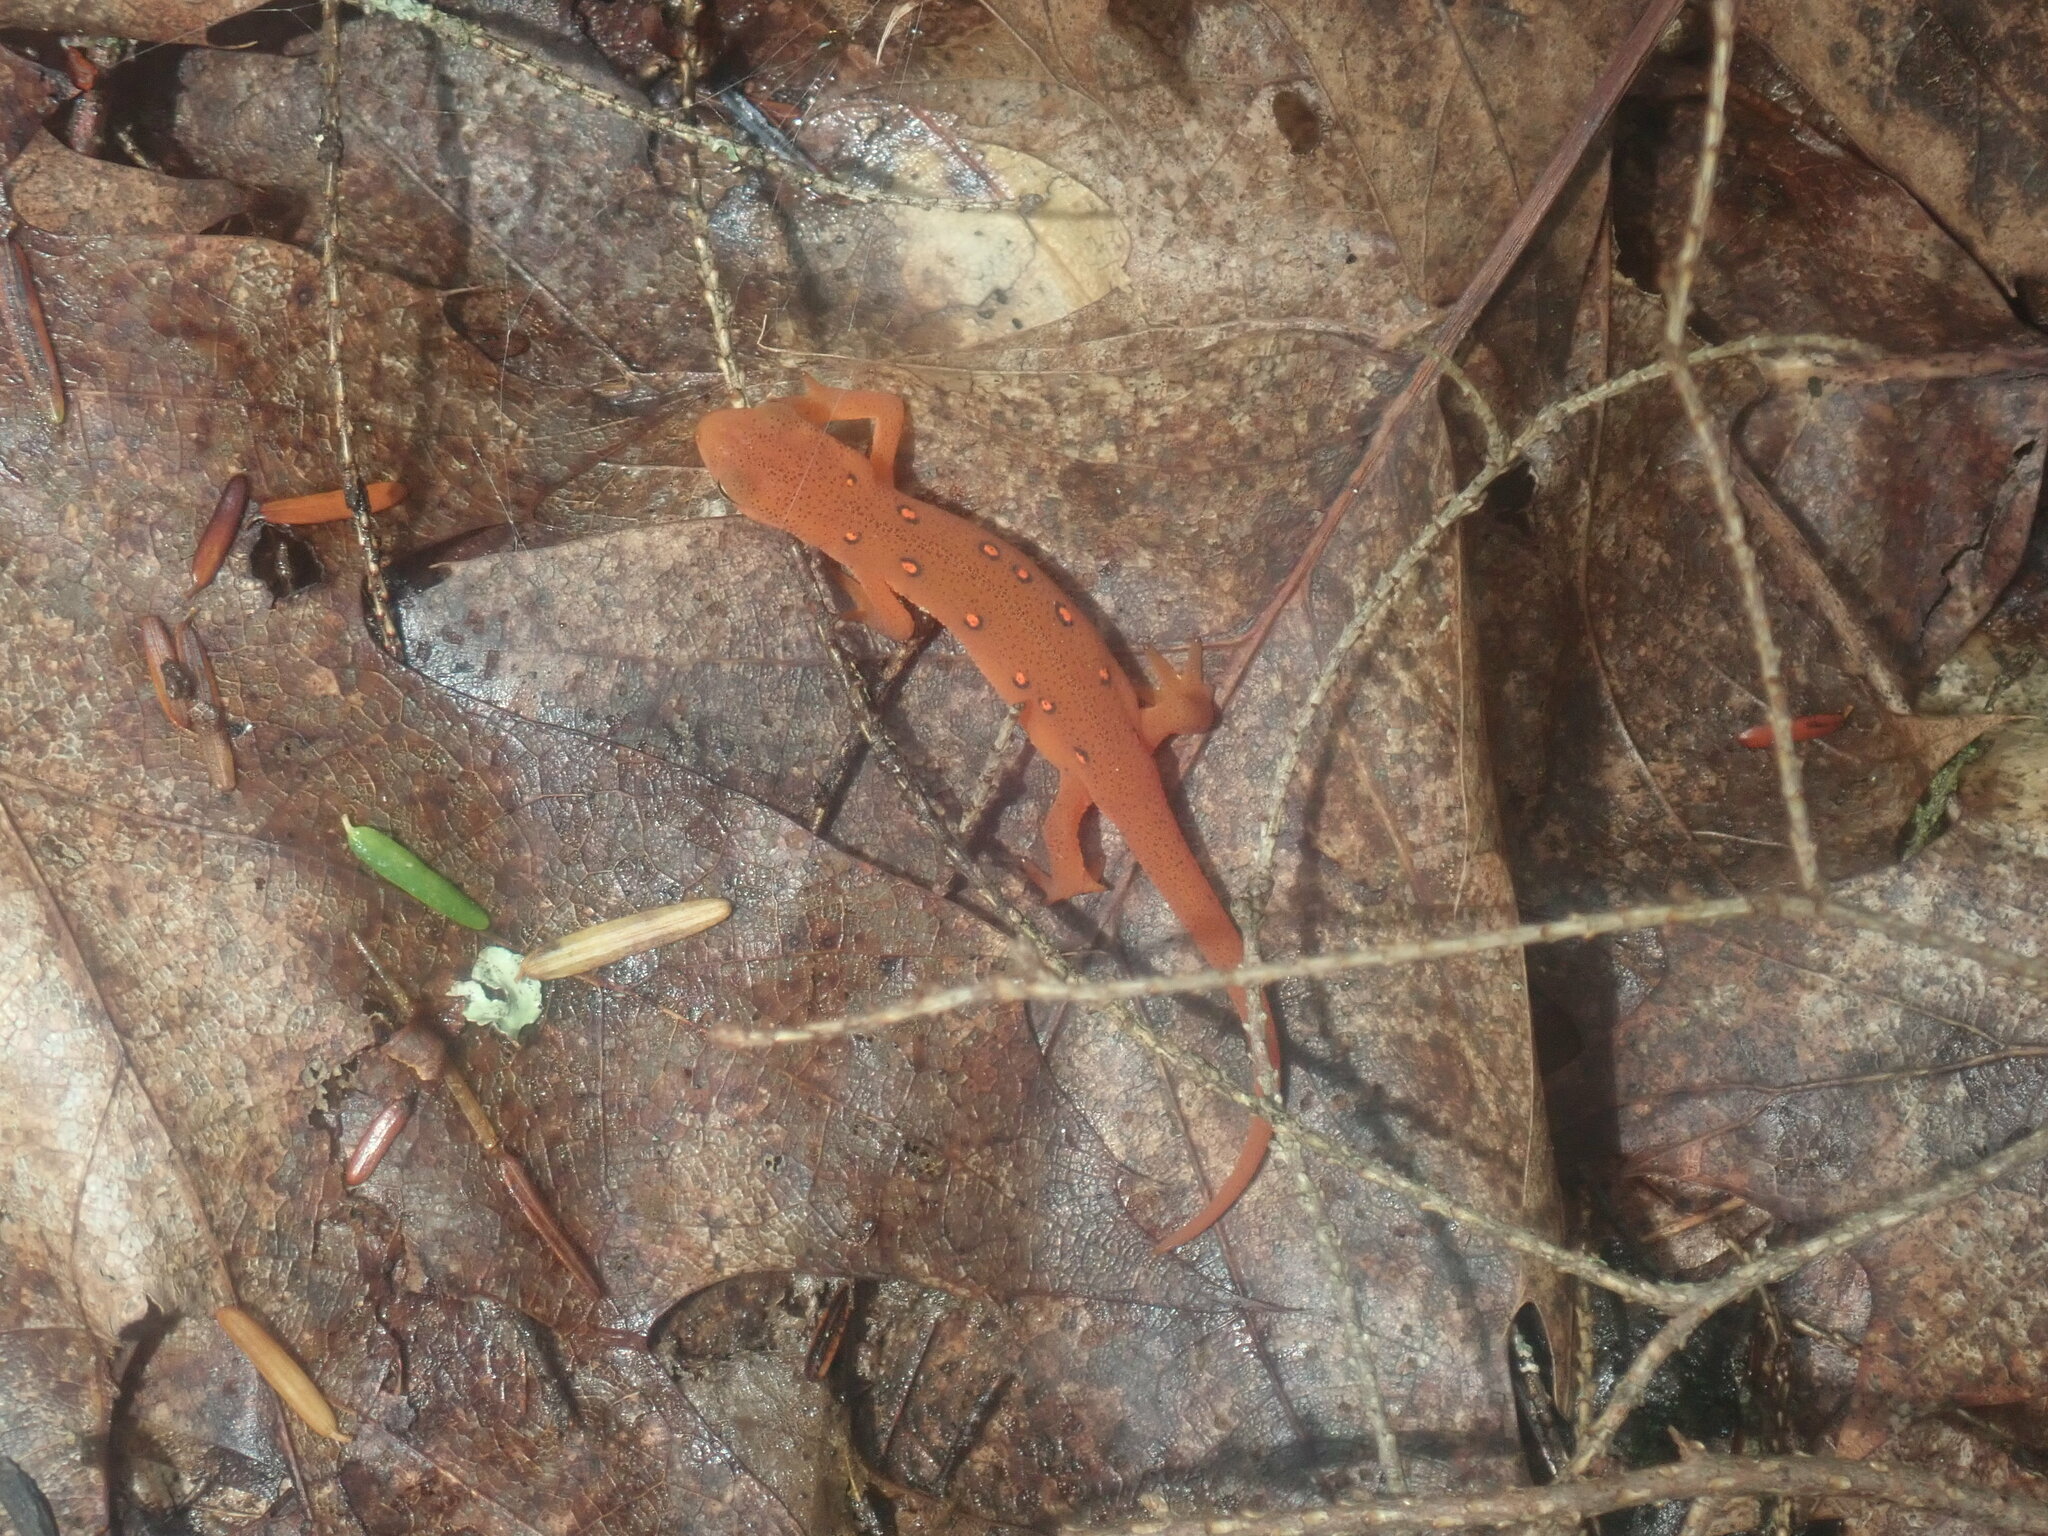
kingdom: Animalia
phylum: Chordata
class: Amphibia
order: Caudata
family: Salamandridae
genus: Notophthalmus
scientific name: Notophthalmus viridescens
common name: Eastern newt
